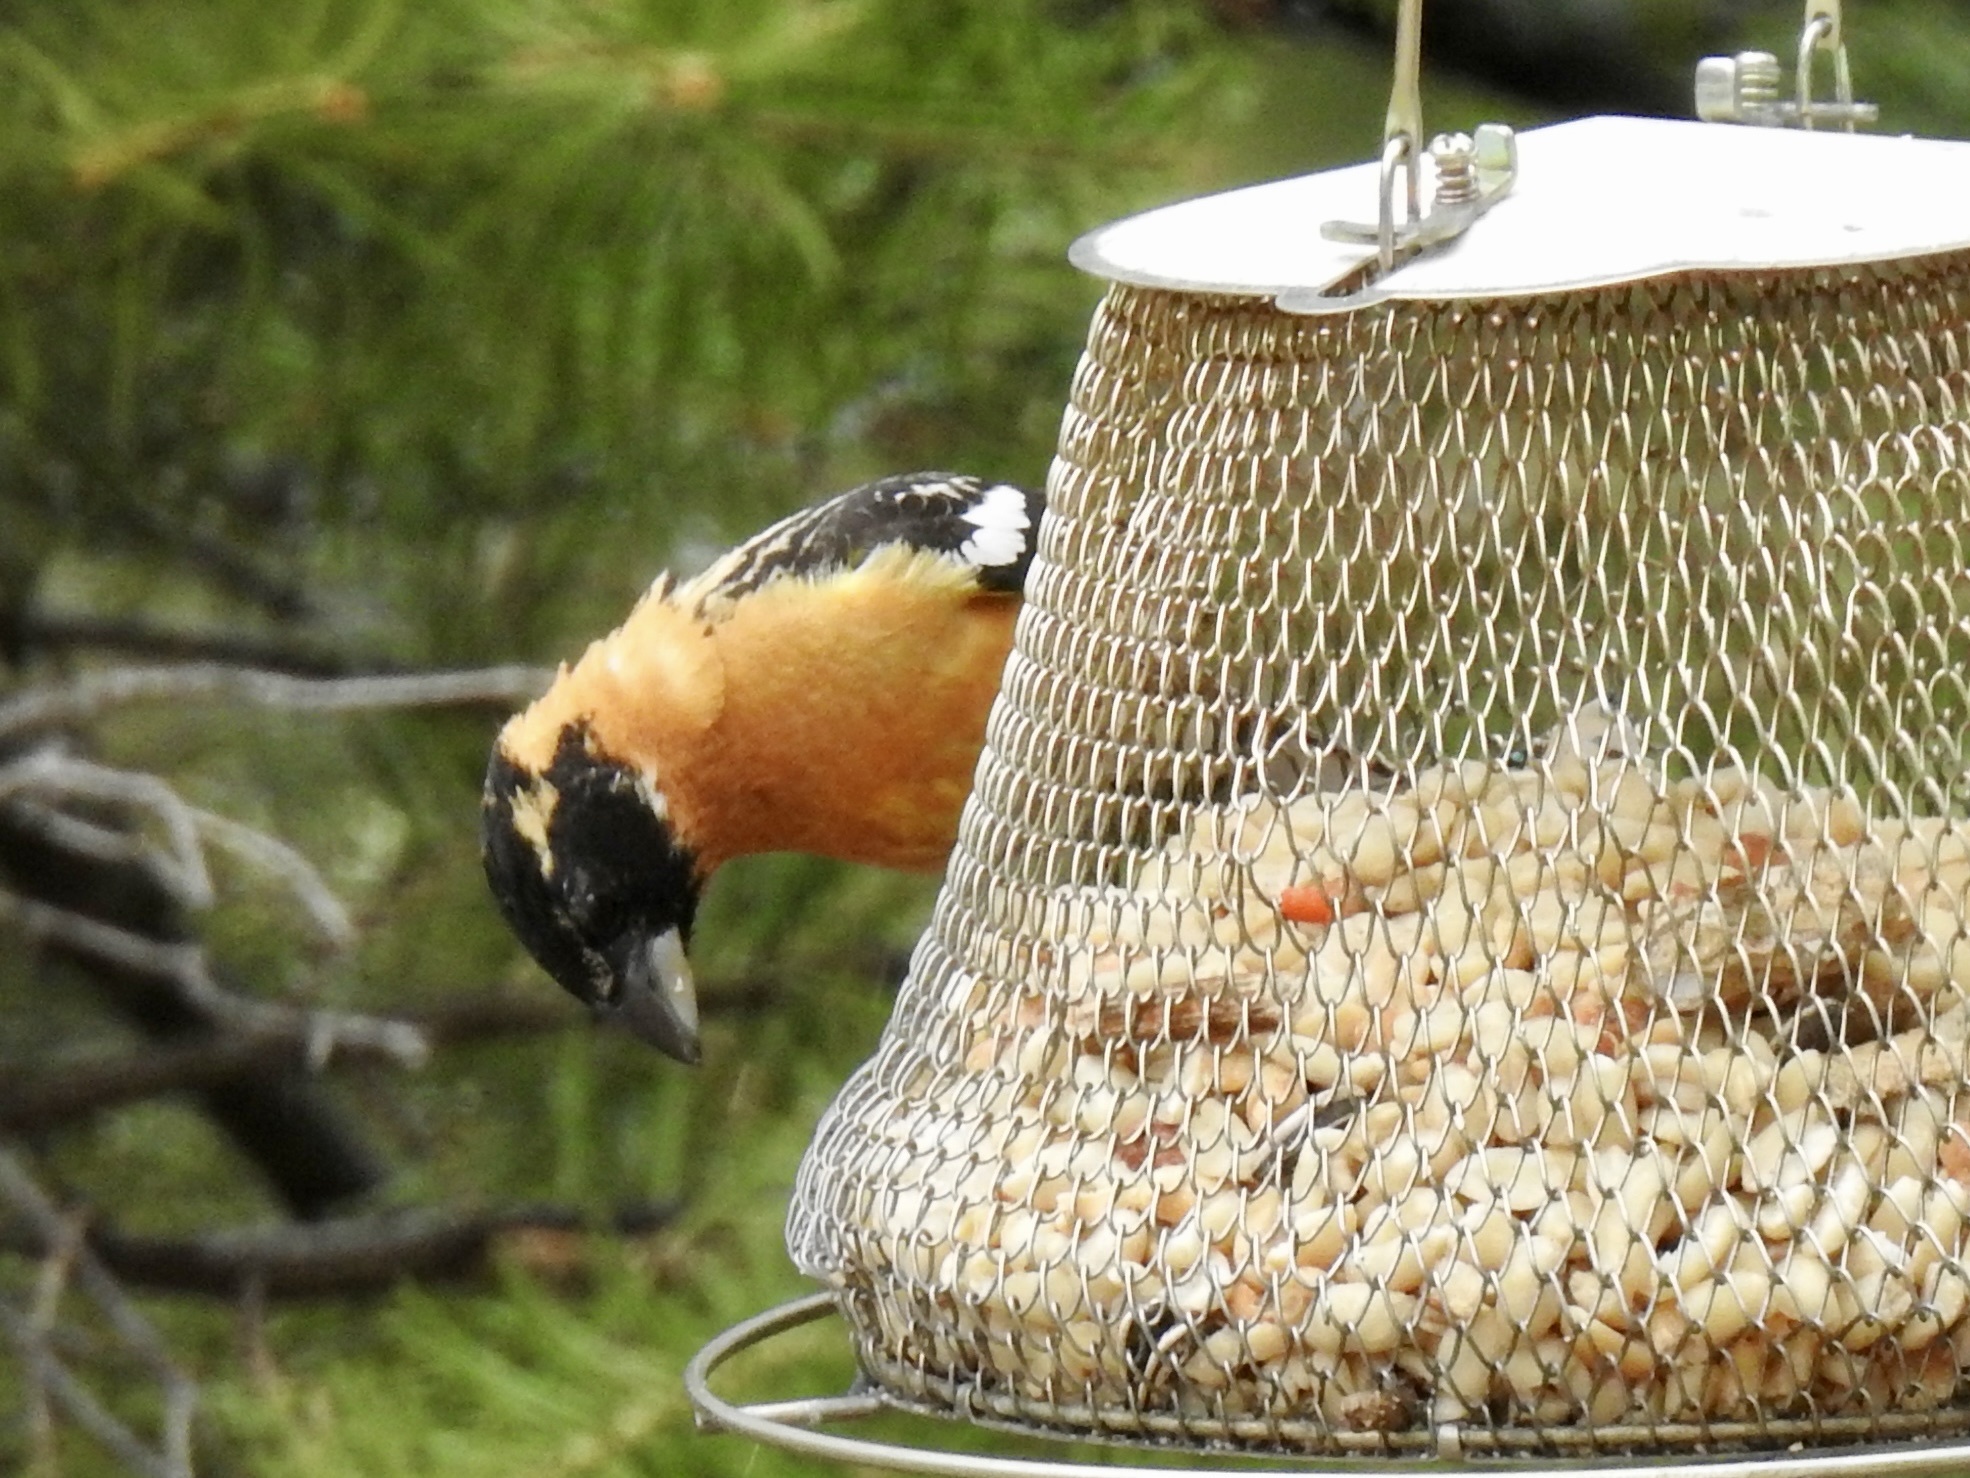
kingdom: Animalia
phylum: Chordata
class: Aves
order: Passeriformes
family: Cardinalidae
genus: Pheucticus
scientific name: Pheucticus melanocephalus
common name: Black-headed grosbeak
